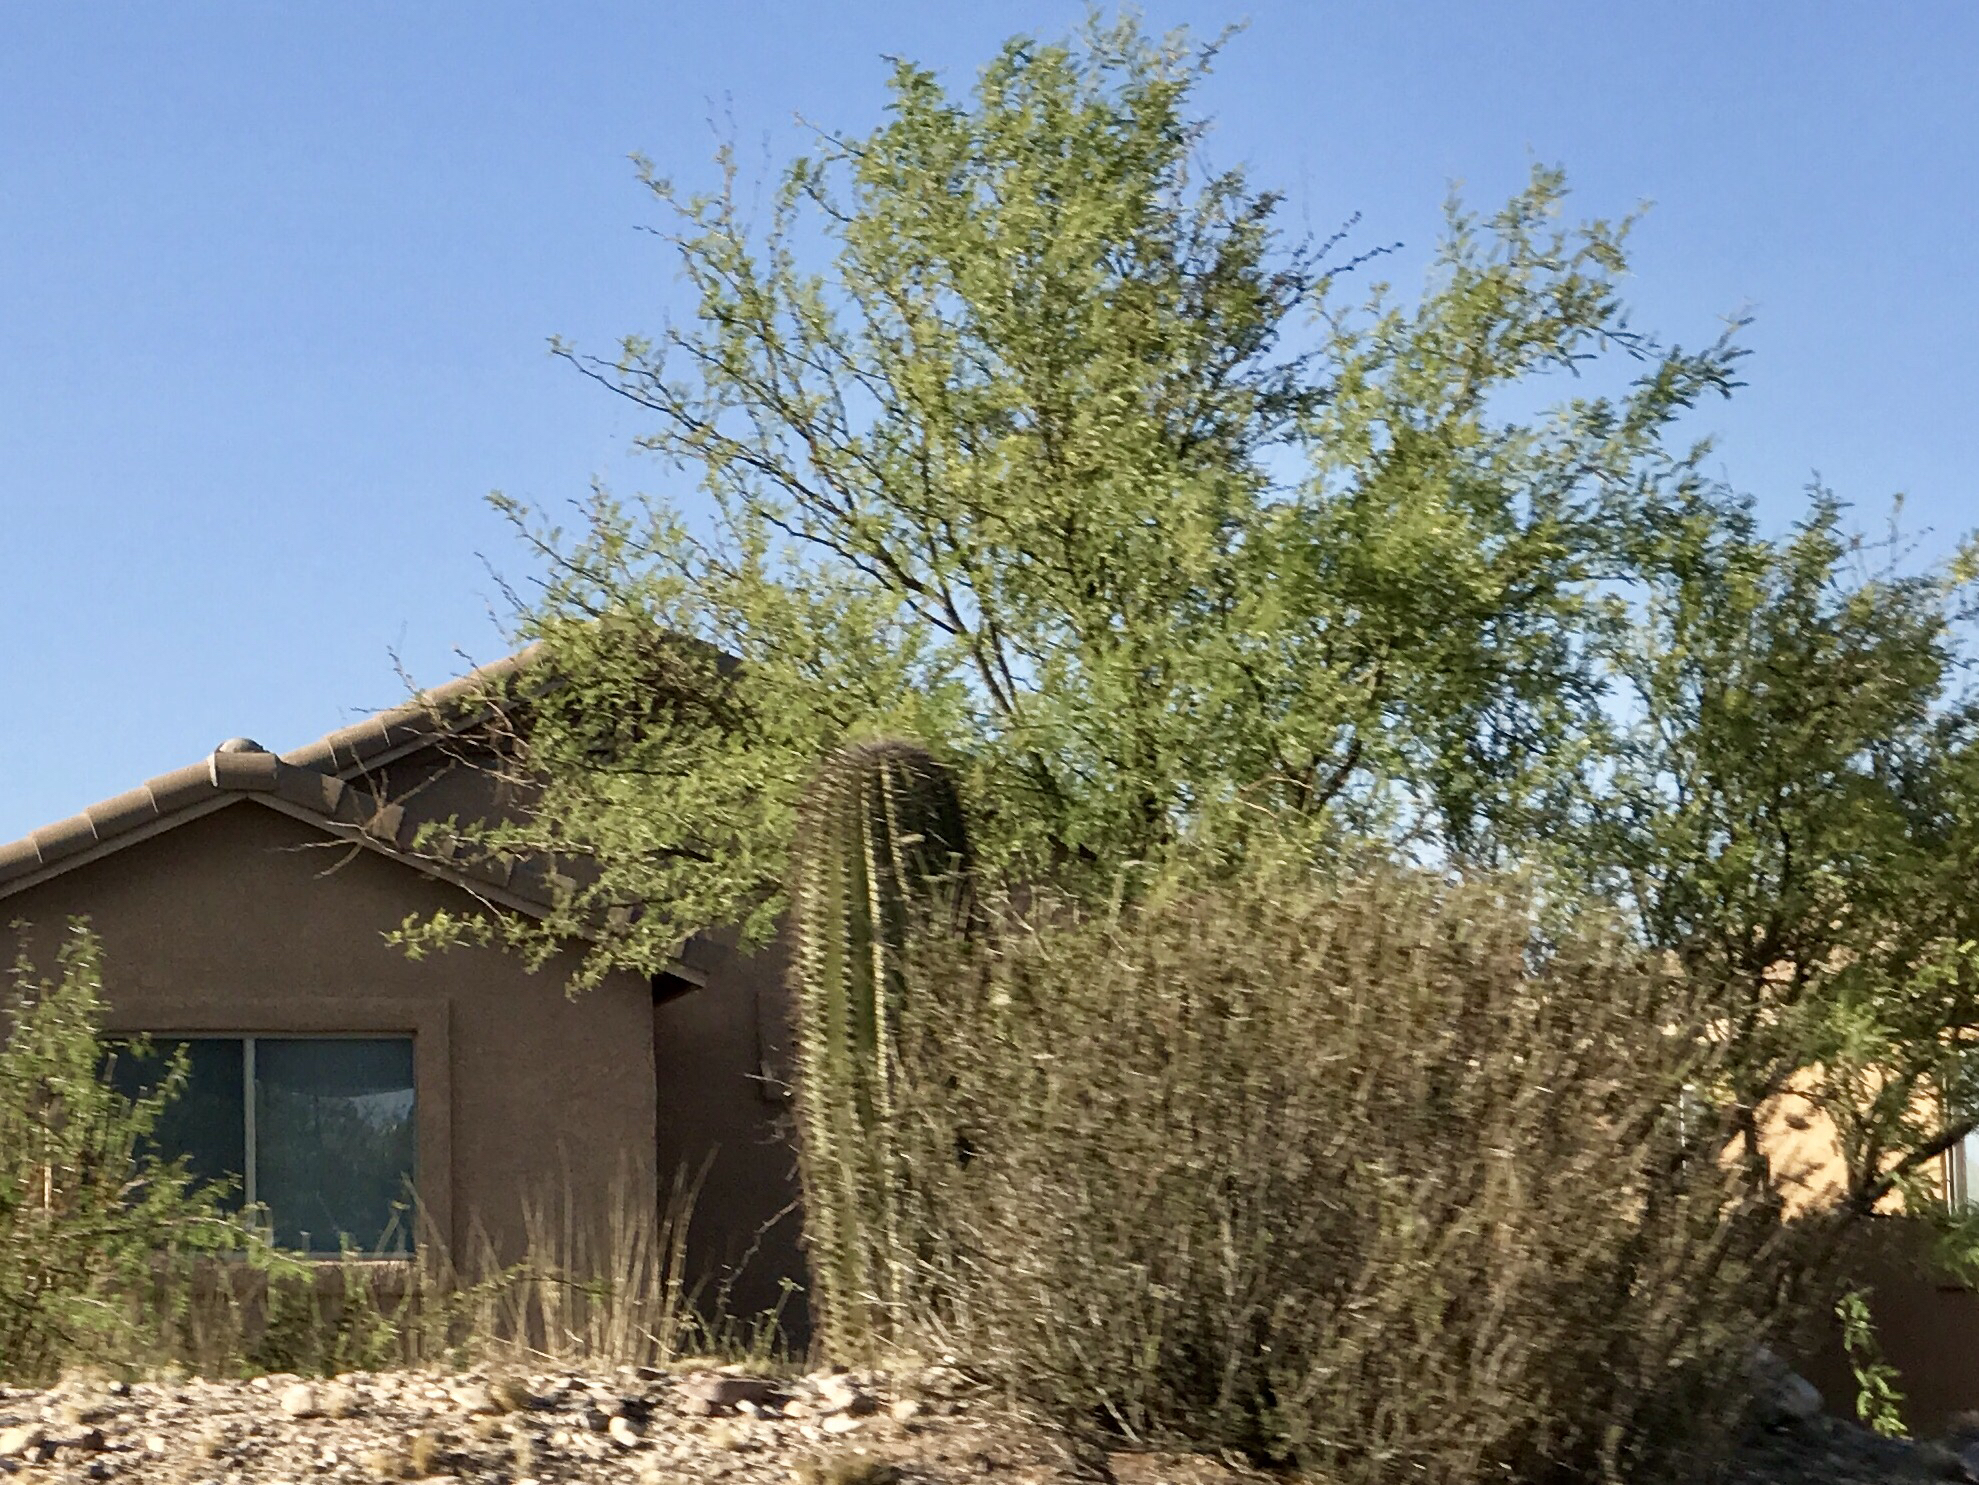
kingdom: Plantae
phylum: Tracheophyta
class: Magnoliopsida
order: Fabales
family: Fabaceae
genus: Prosopis
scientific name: Prosopis velutina
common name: Velvet mesquite
